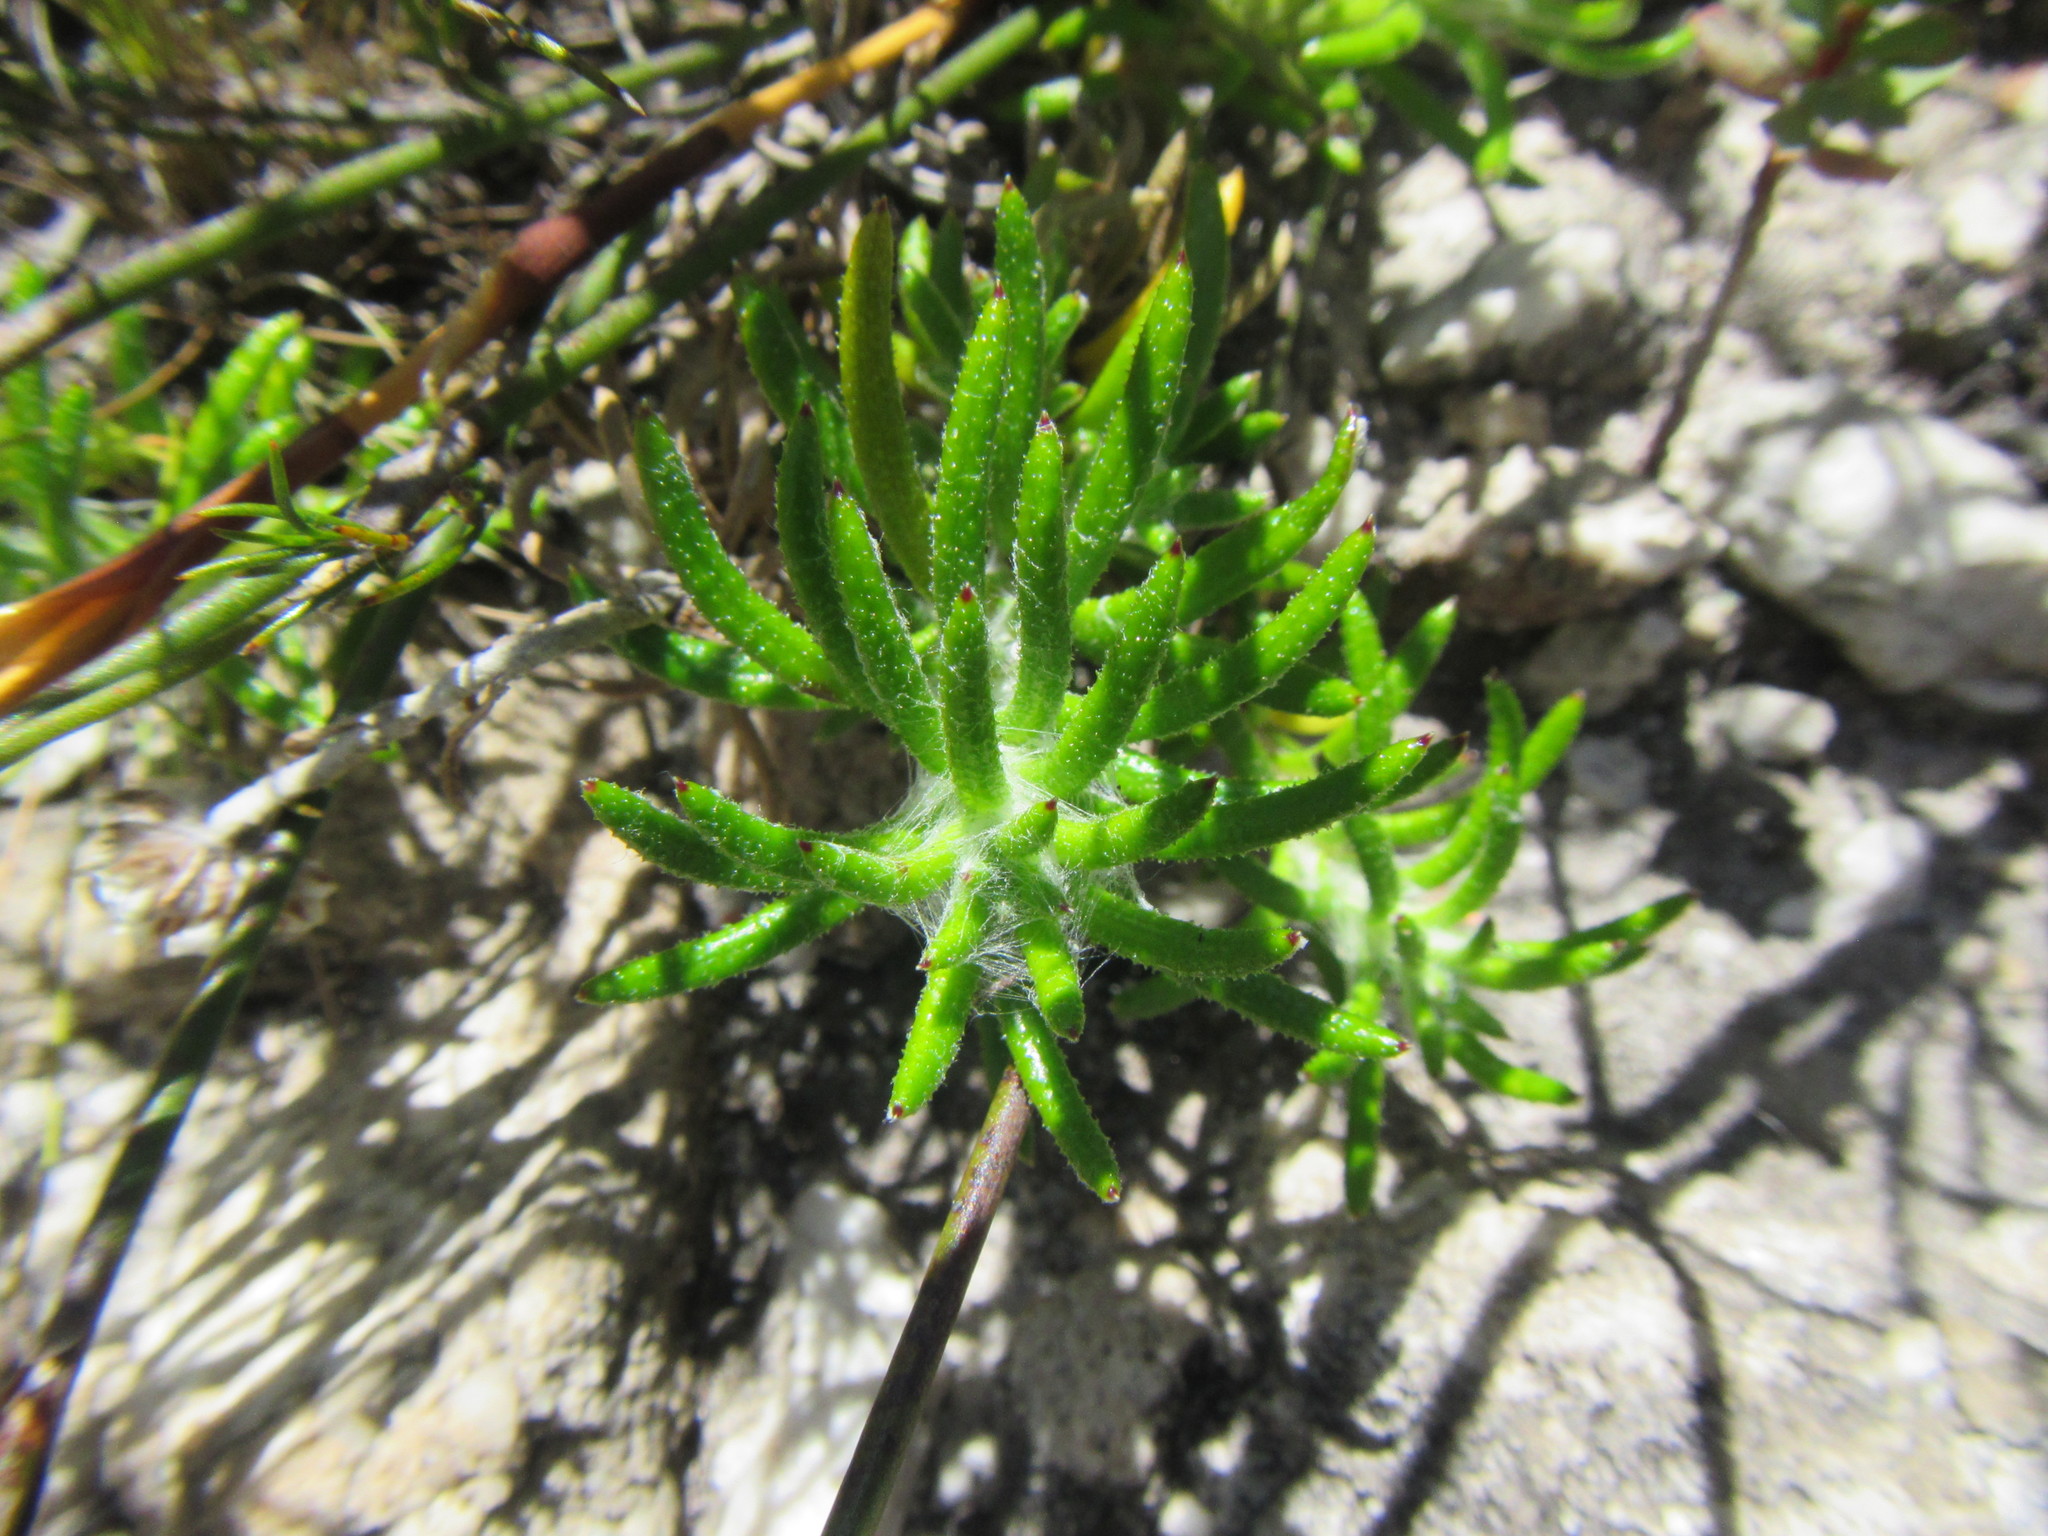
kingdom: Plantae
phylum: Tracheophyta
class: Magnoliopsida
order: Asterales
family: Asteraceae
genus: Anaxeton
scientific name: Anaxeton asperum
